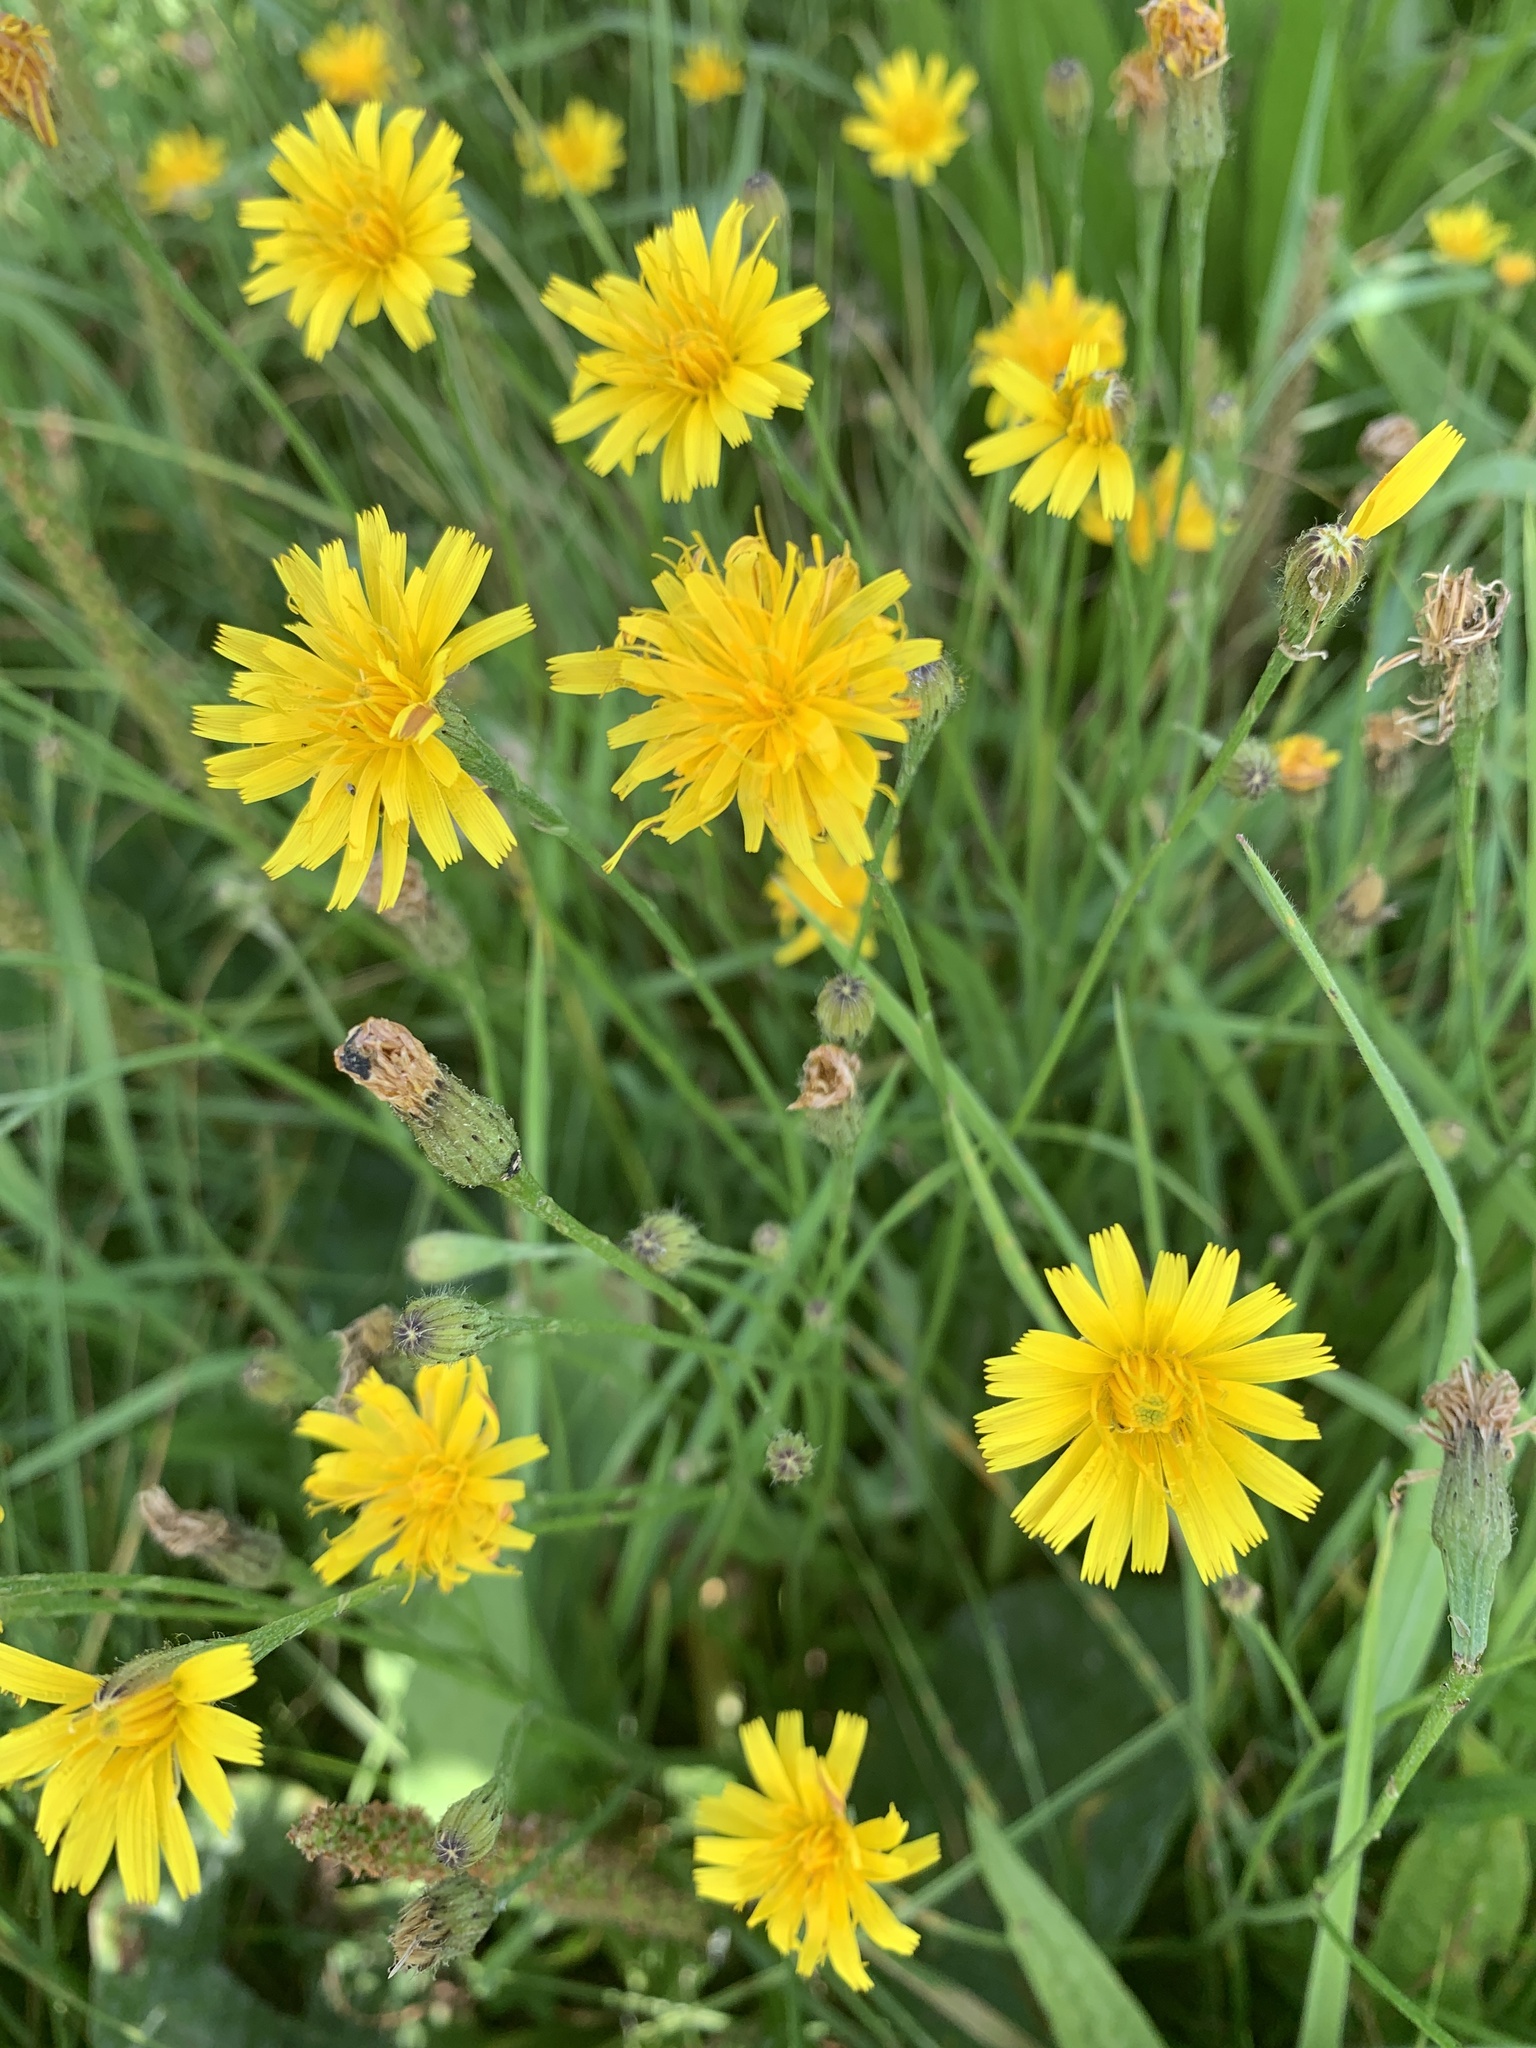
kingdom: Plantae
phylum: Tracheophyta
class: Magnoliopsida
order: Asterales
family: Asteraceae
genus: Scorzoneroides
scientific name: Scorzoneroides autumnalis
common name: Autumn hawkbit
